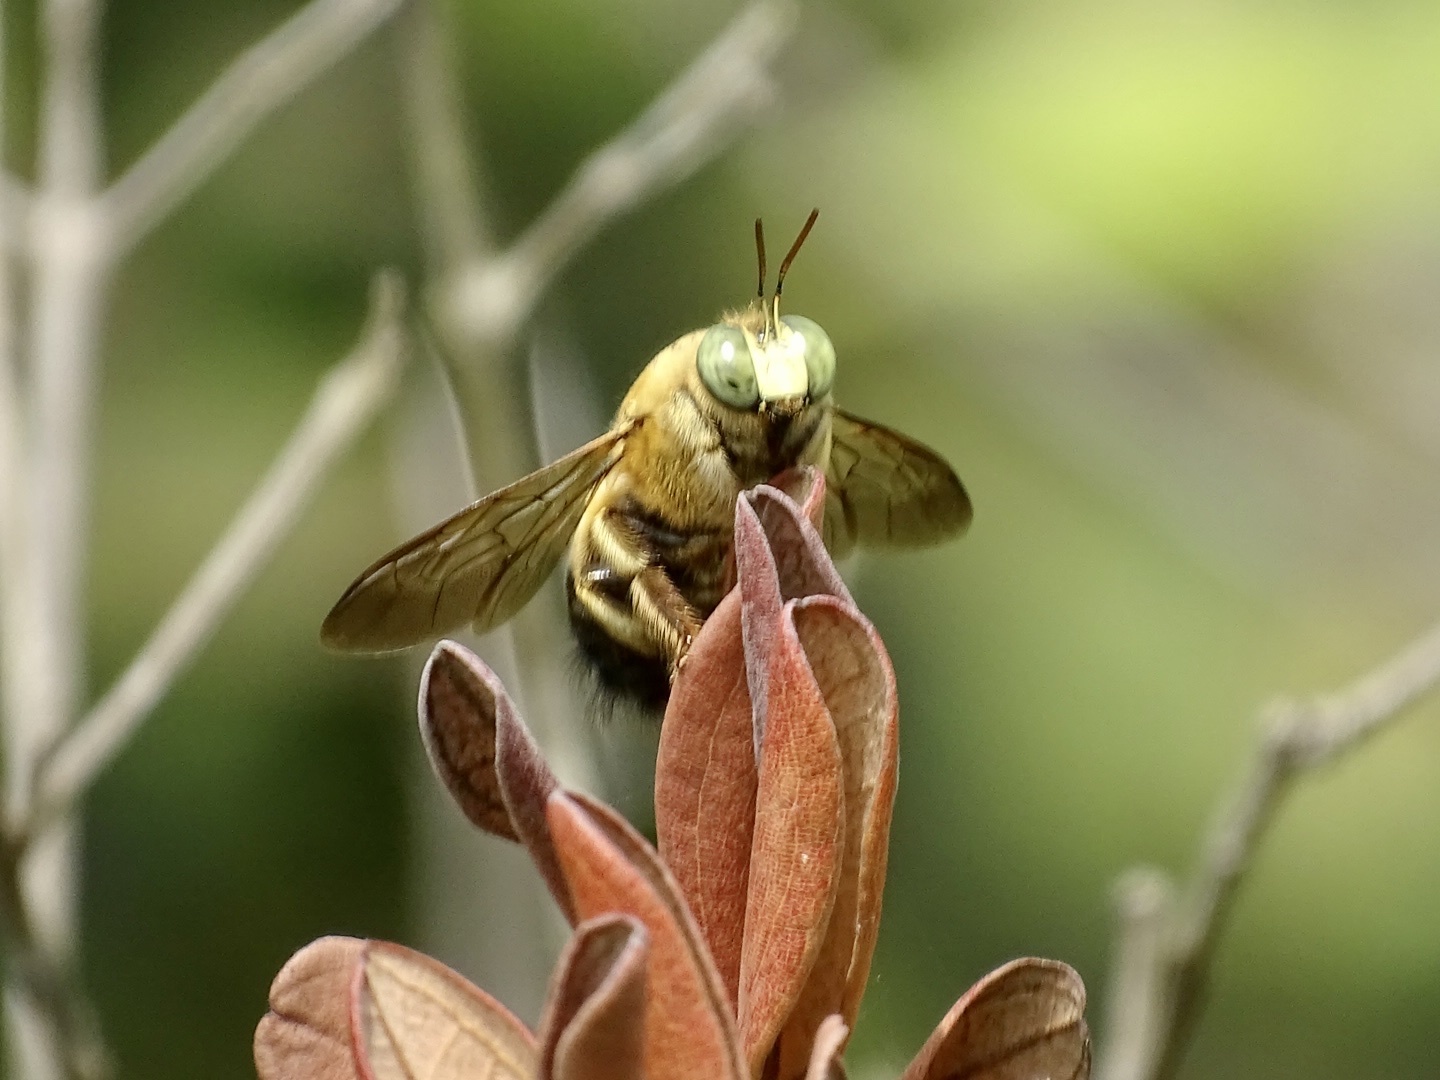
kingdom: Animalia
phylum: Arthropoda
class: Insecta
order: Hymenoptera
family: Apidae
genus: Xylocopa
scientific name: Xylocopa dejeanii
